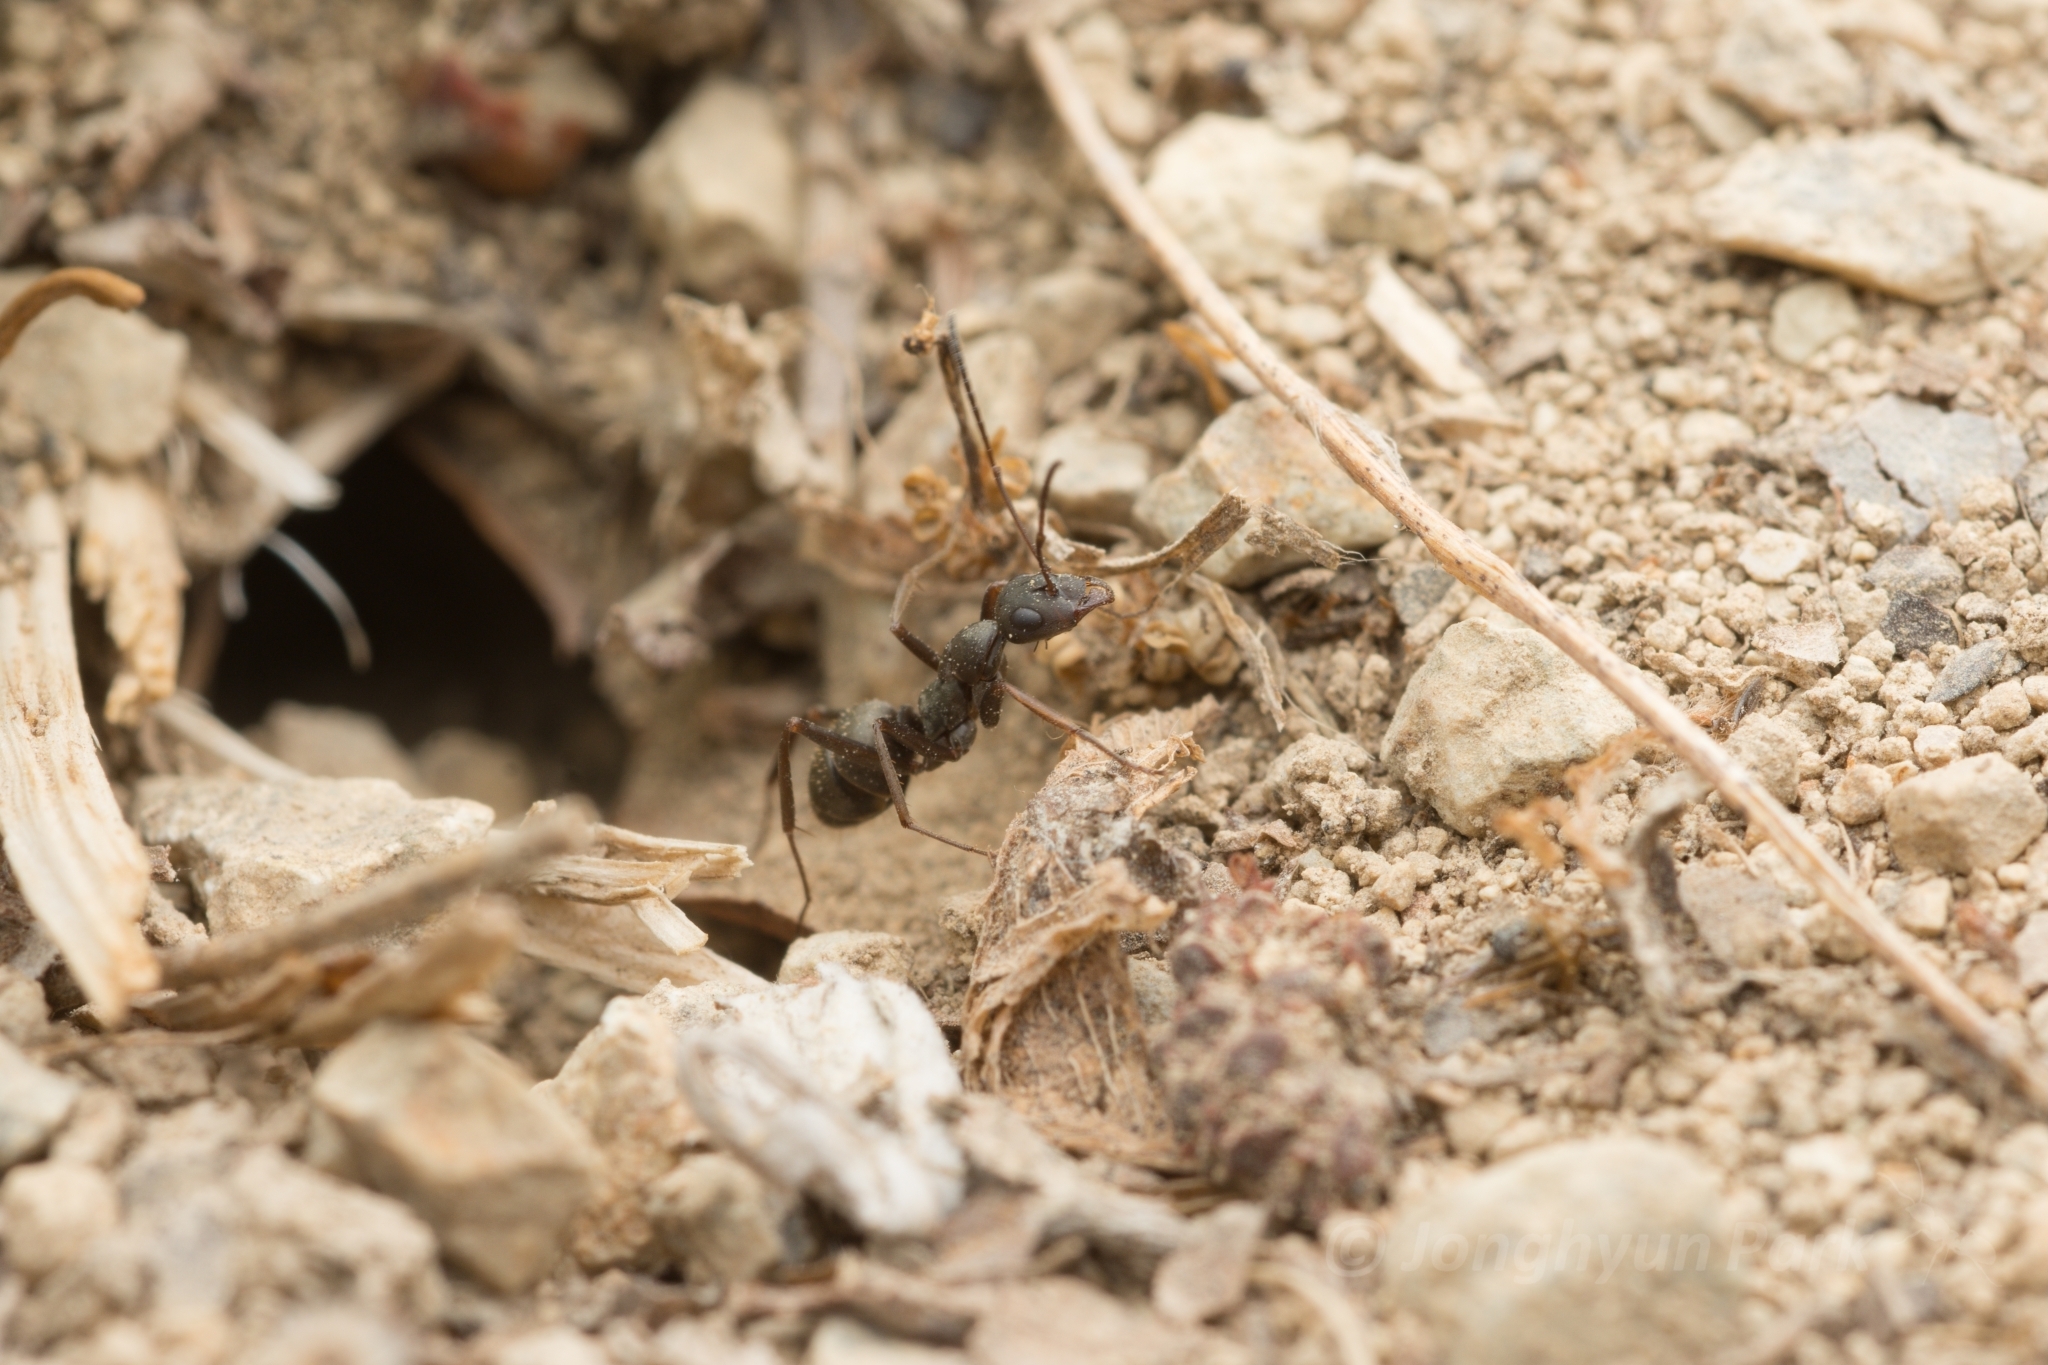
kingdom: Animalia
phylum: Arthropoda
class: Insecta
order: Hymenoptera
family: Formicidae
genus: Formica
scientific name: Formica japonica
